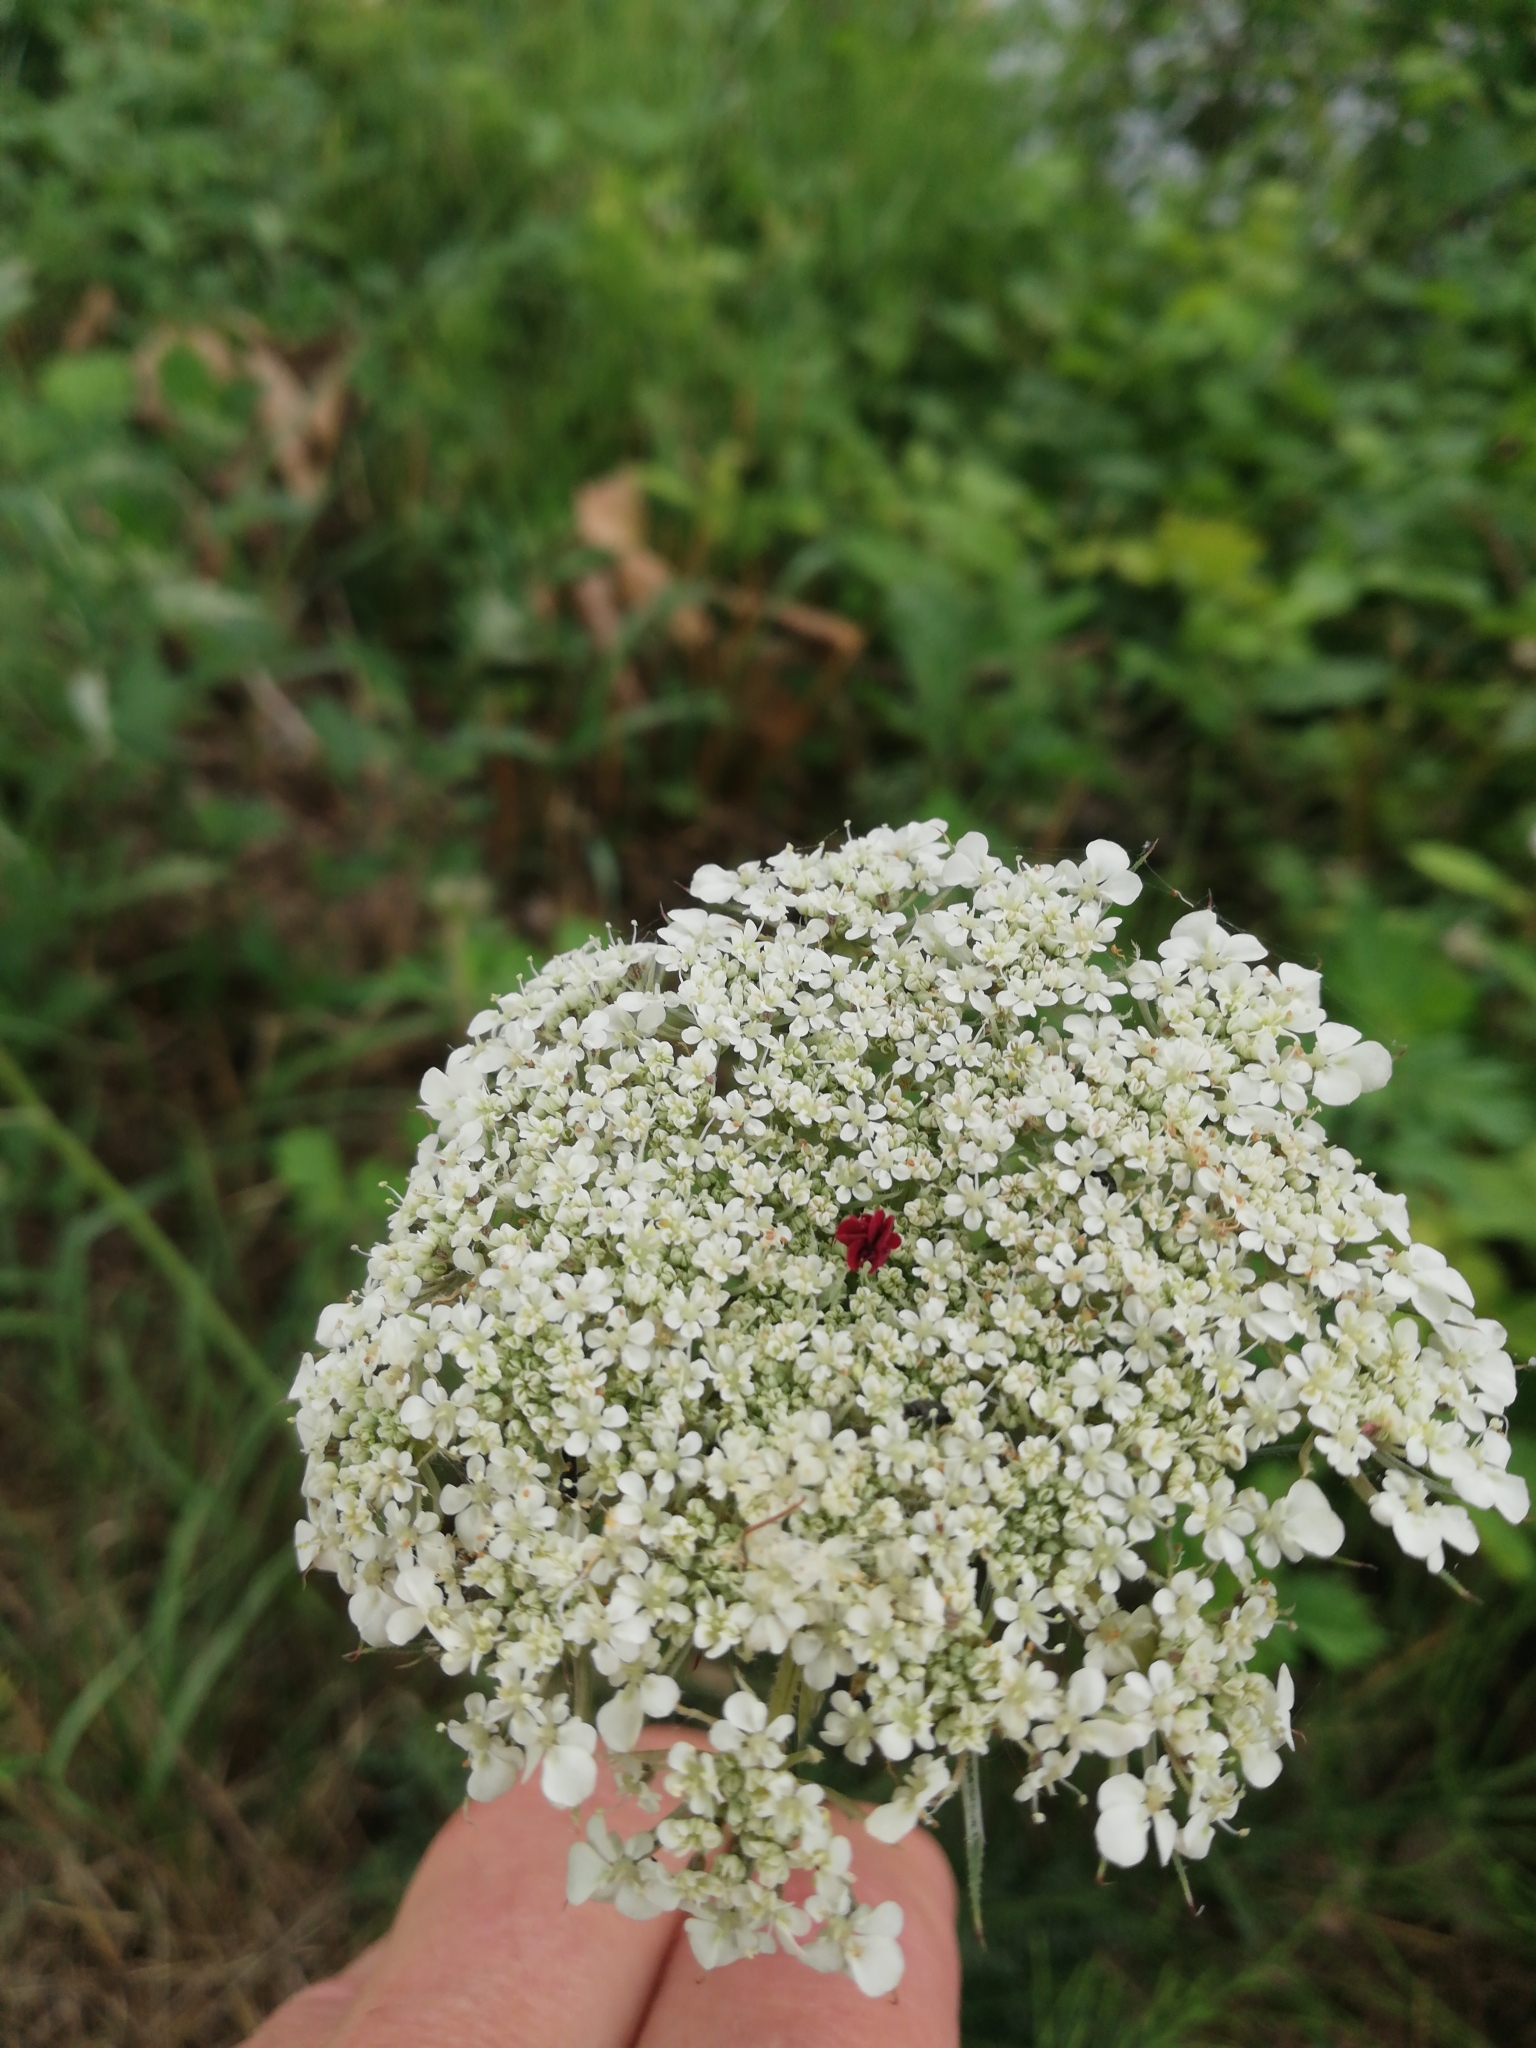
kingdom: Plantae
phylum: Tracheophyta
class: Magnoliopsida
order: Apiales
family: Apiaceae
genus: Daucus
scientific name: Daucus carota
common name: Wild carrot
